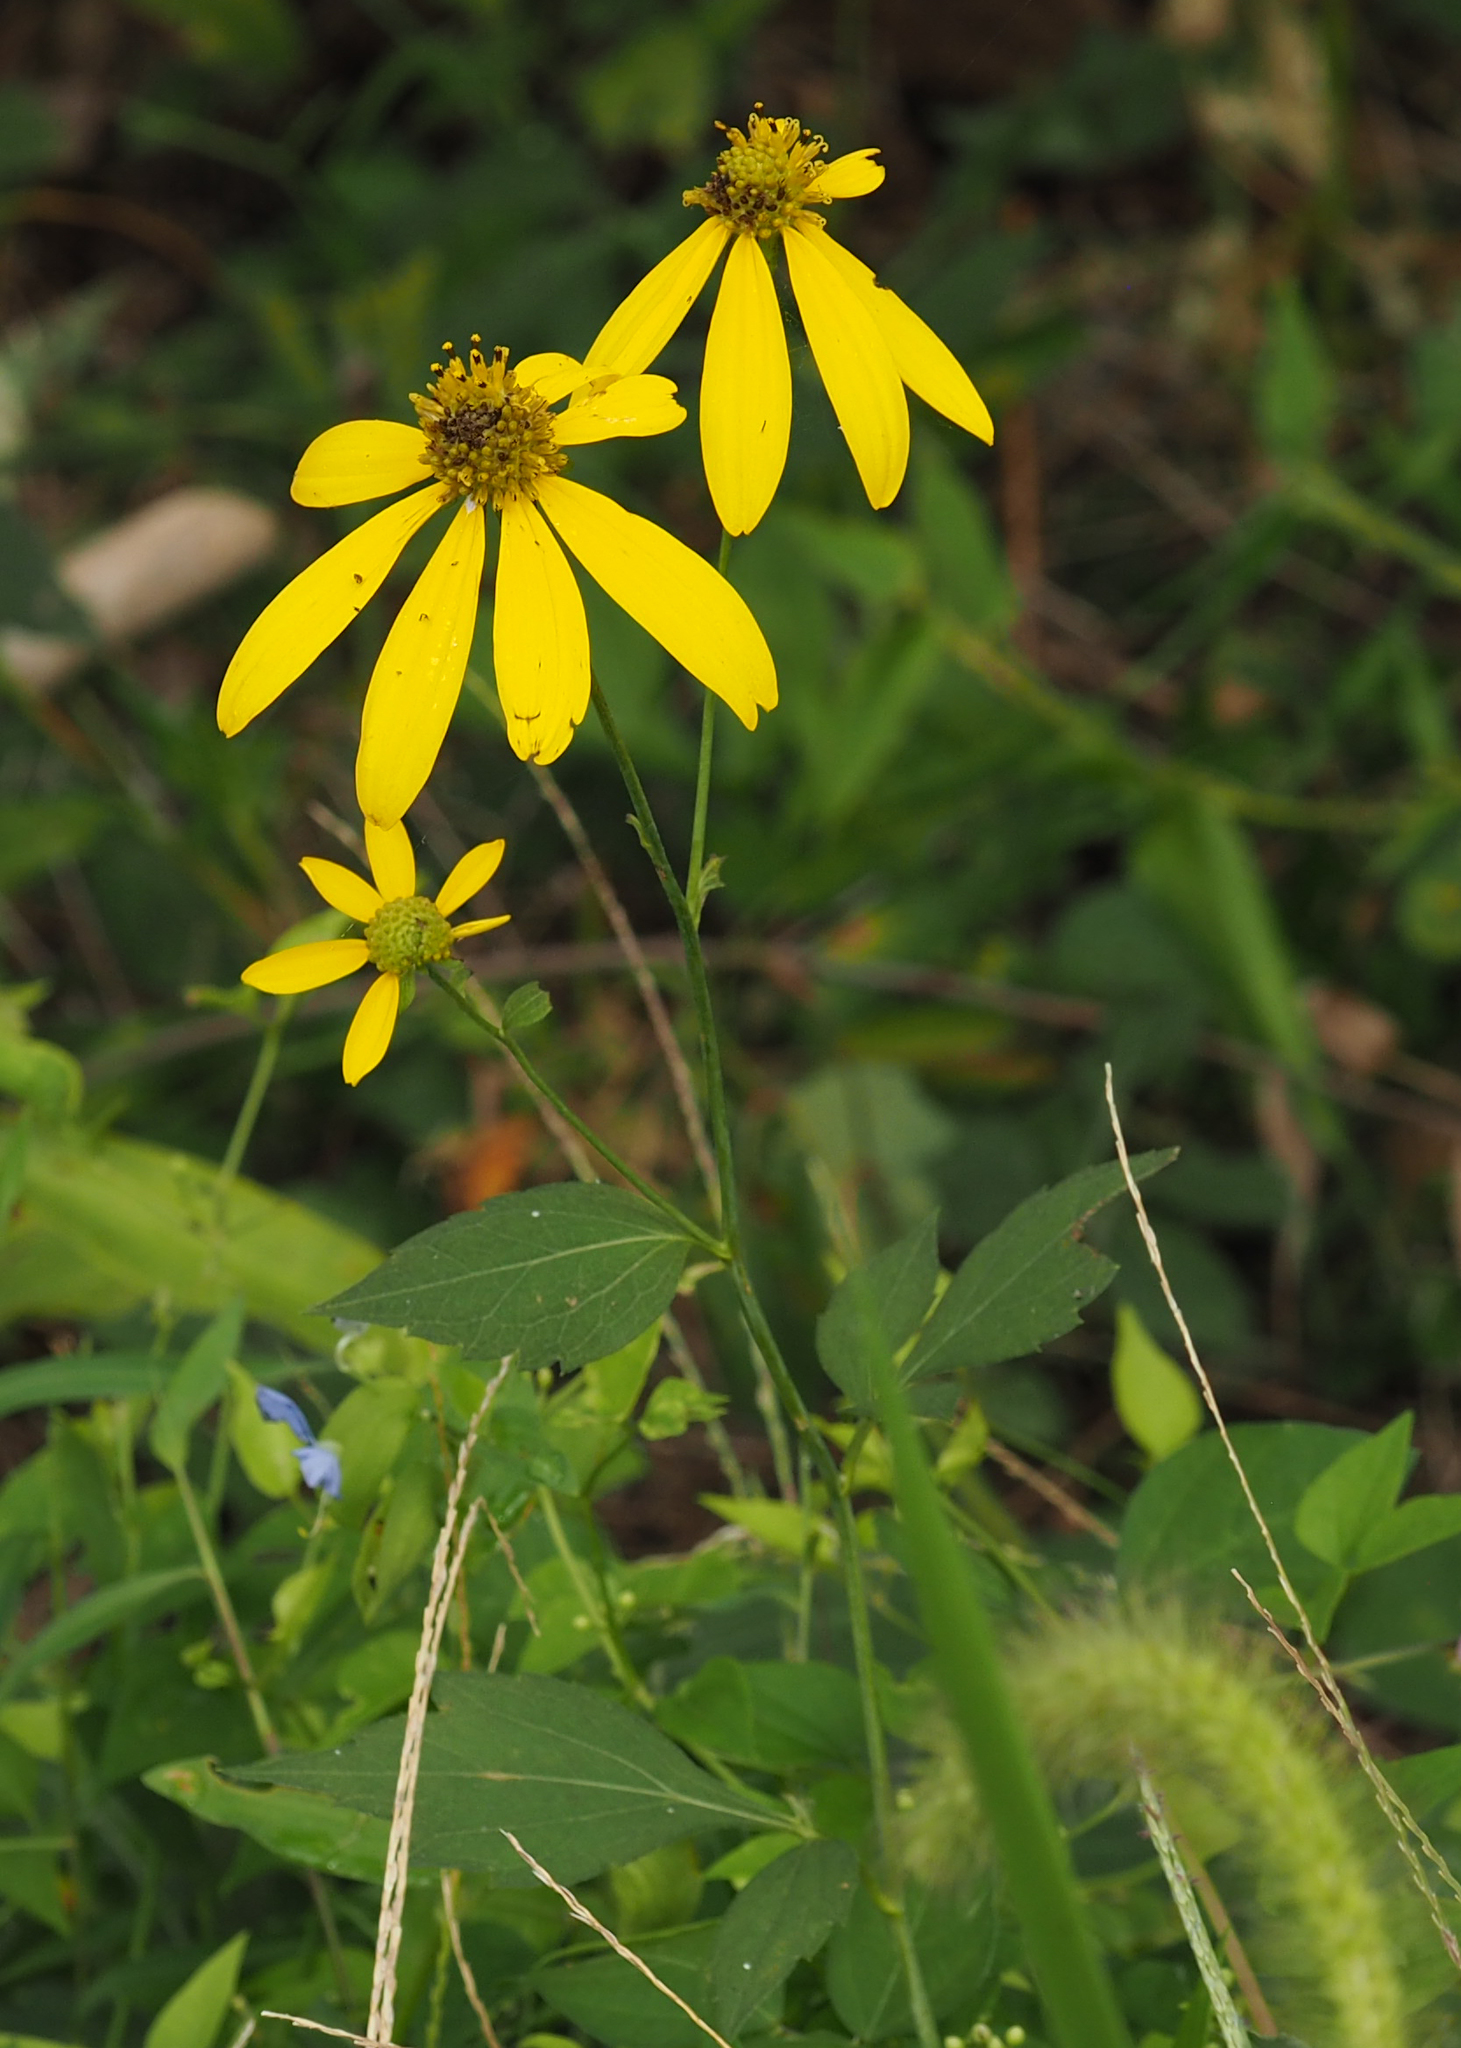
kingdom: Plantae
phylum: Tracheophyta
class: Magnoliopsida
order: Asterales
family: Asteraceae
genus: Rudbeckia
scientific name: Rudbeckia laciniata
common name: Coneflower
